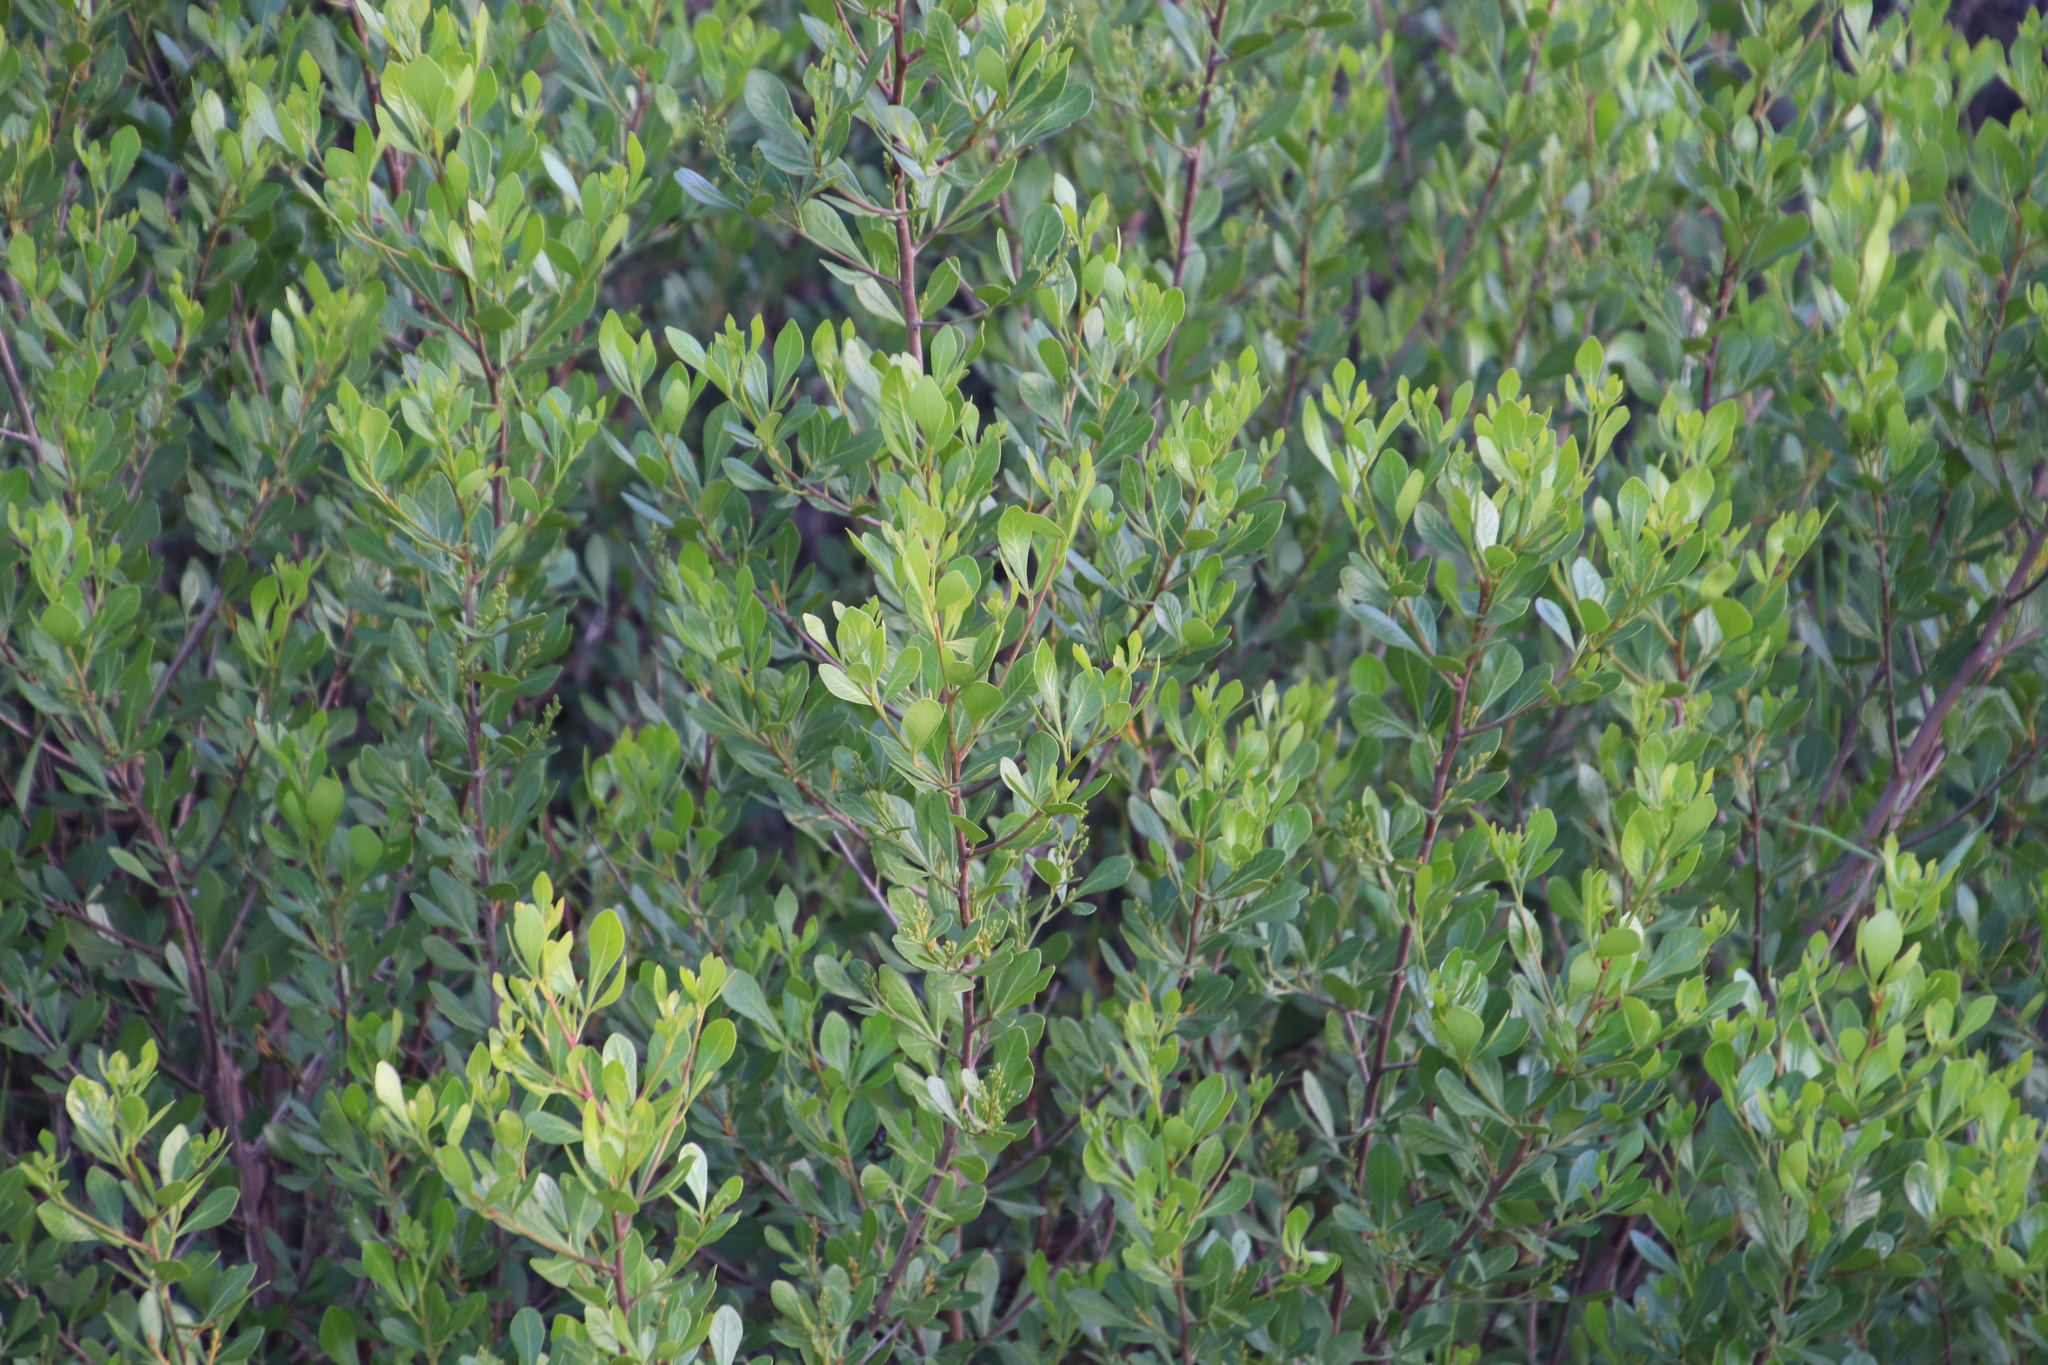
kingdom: Plantae
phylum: Tracheophyta
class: Magnoliopsida
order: Sapindales
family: Anacardiaceae
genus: Searsia
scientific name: Searsia lucida
